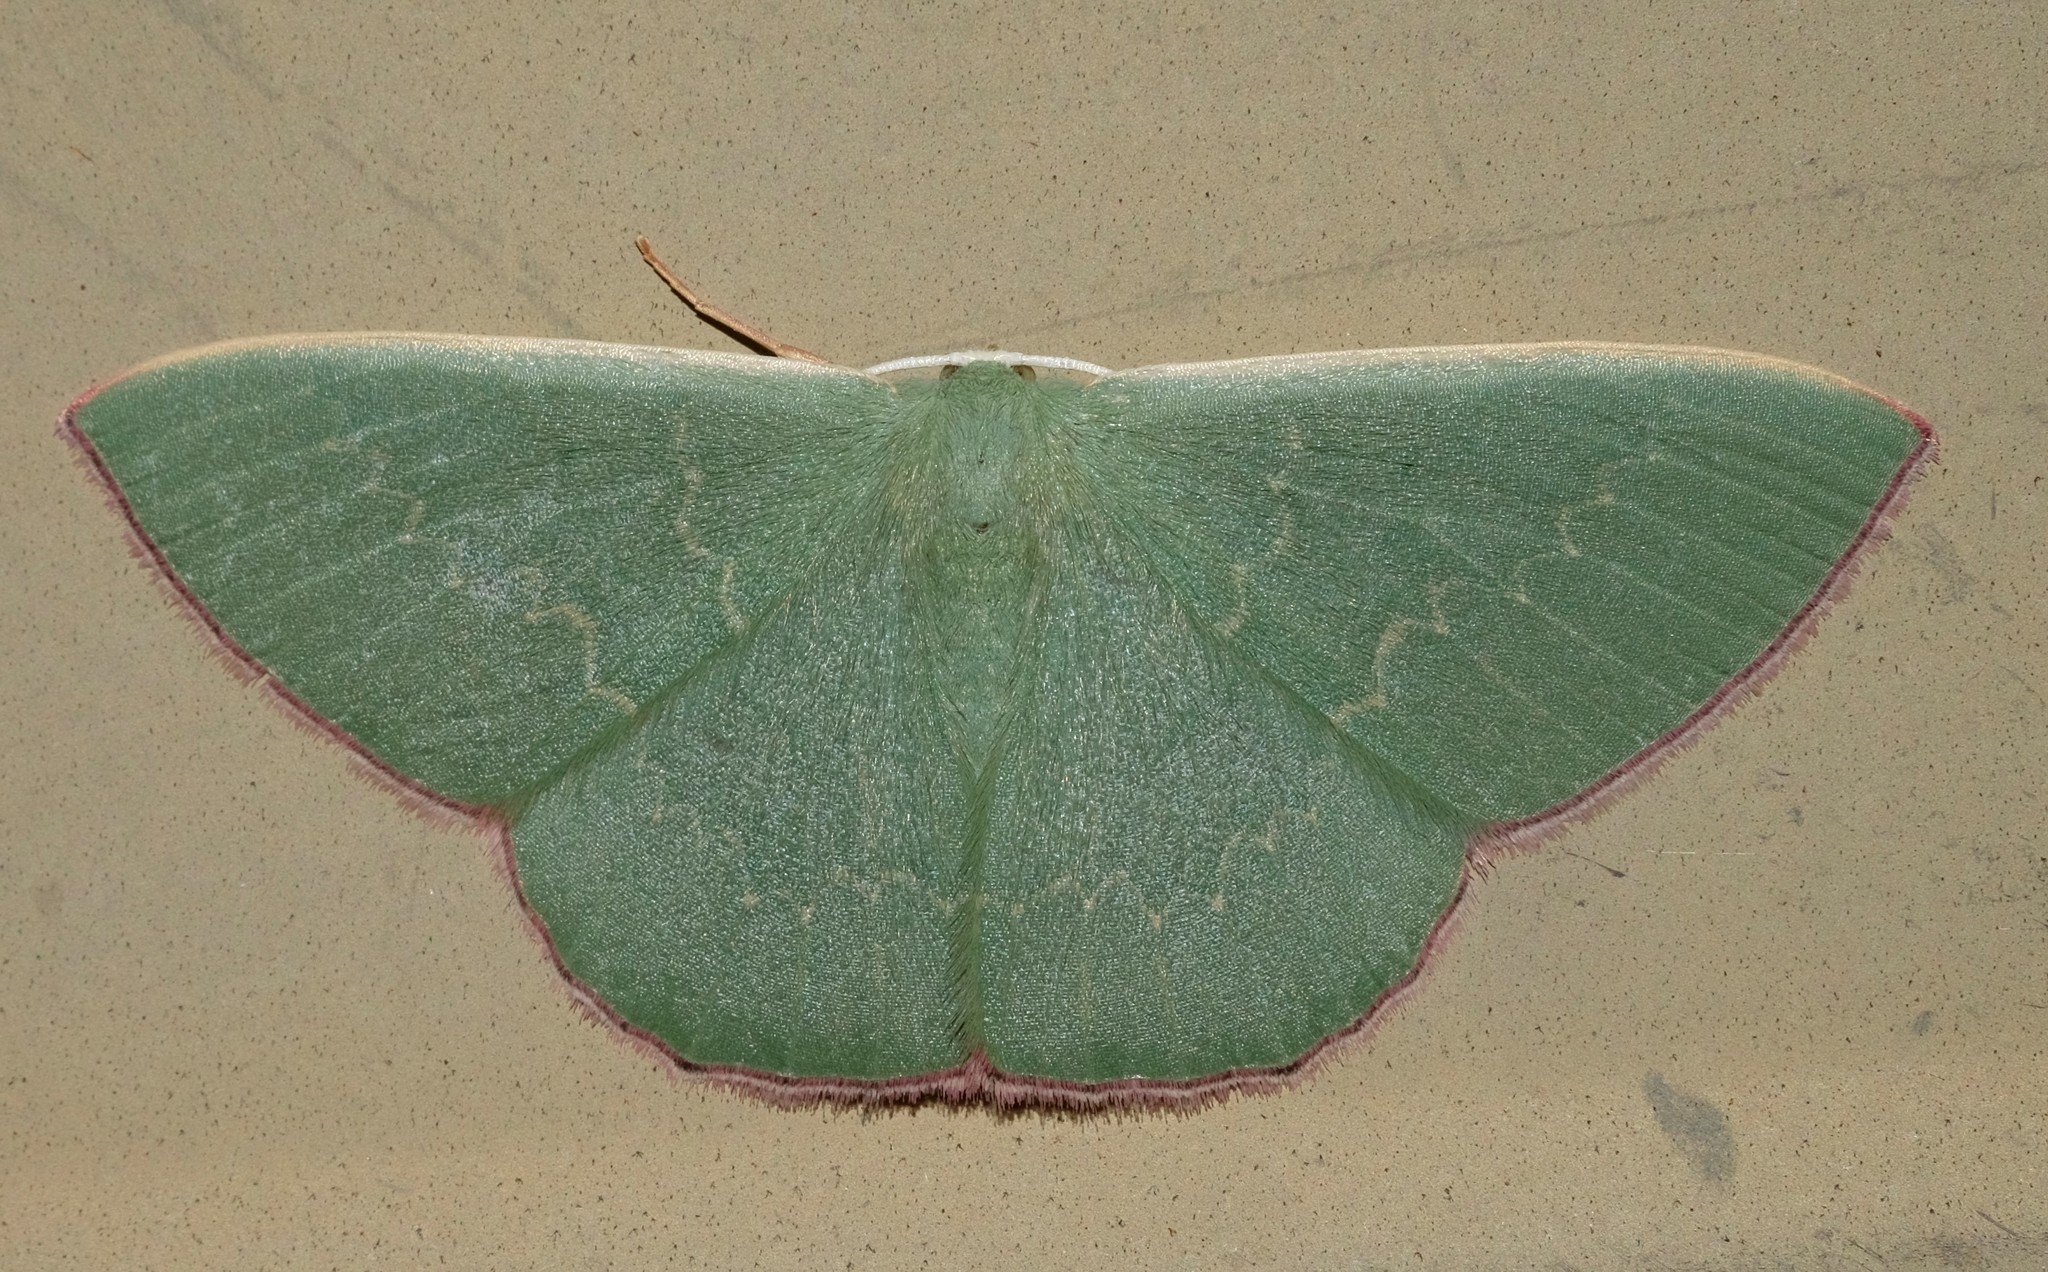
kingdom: Animalia
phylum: Arthropoda
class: Insecta
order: Lepidoptera
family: Geometridae
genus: Prasinocyma
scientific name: Prasinocyma semicrocea
